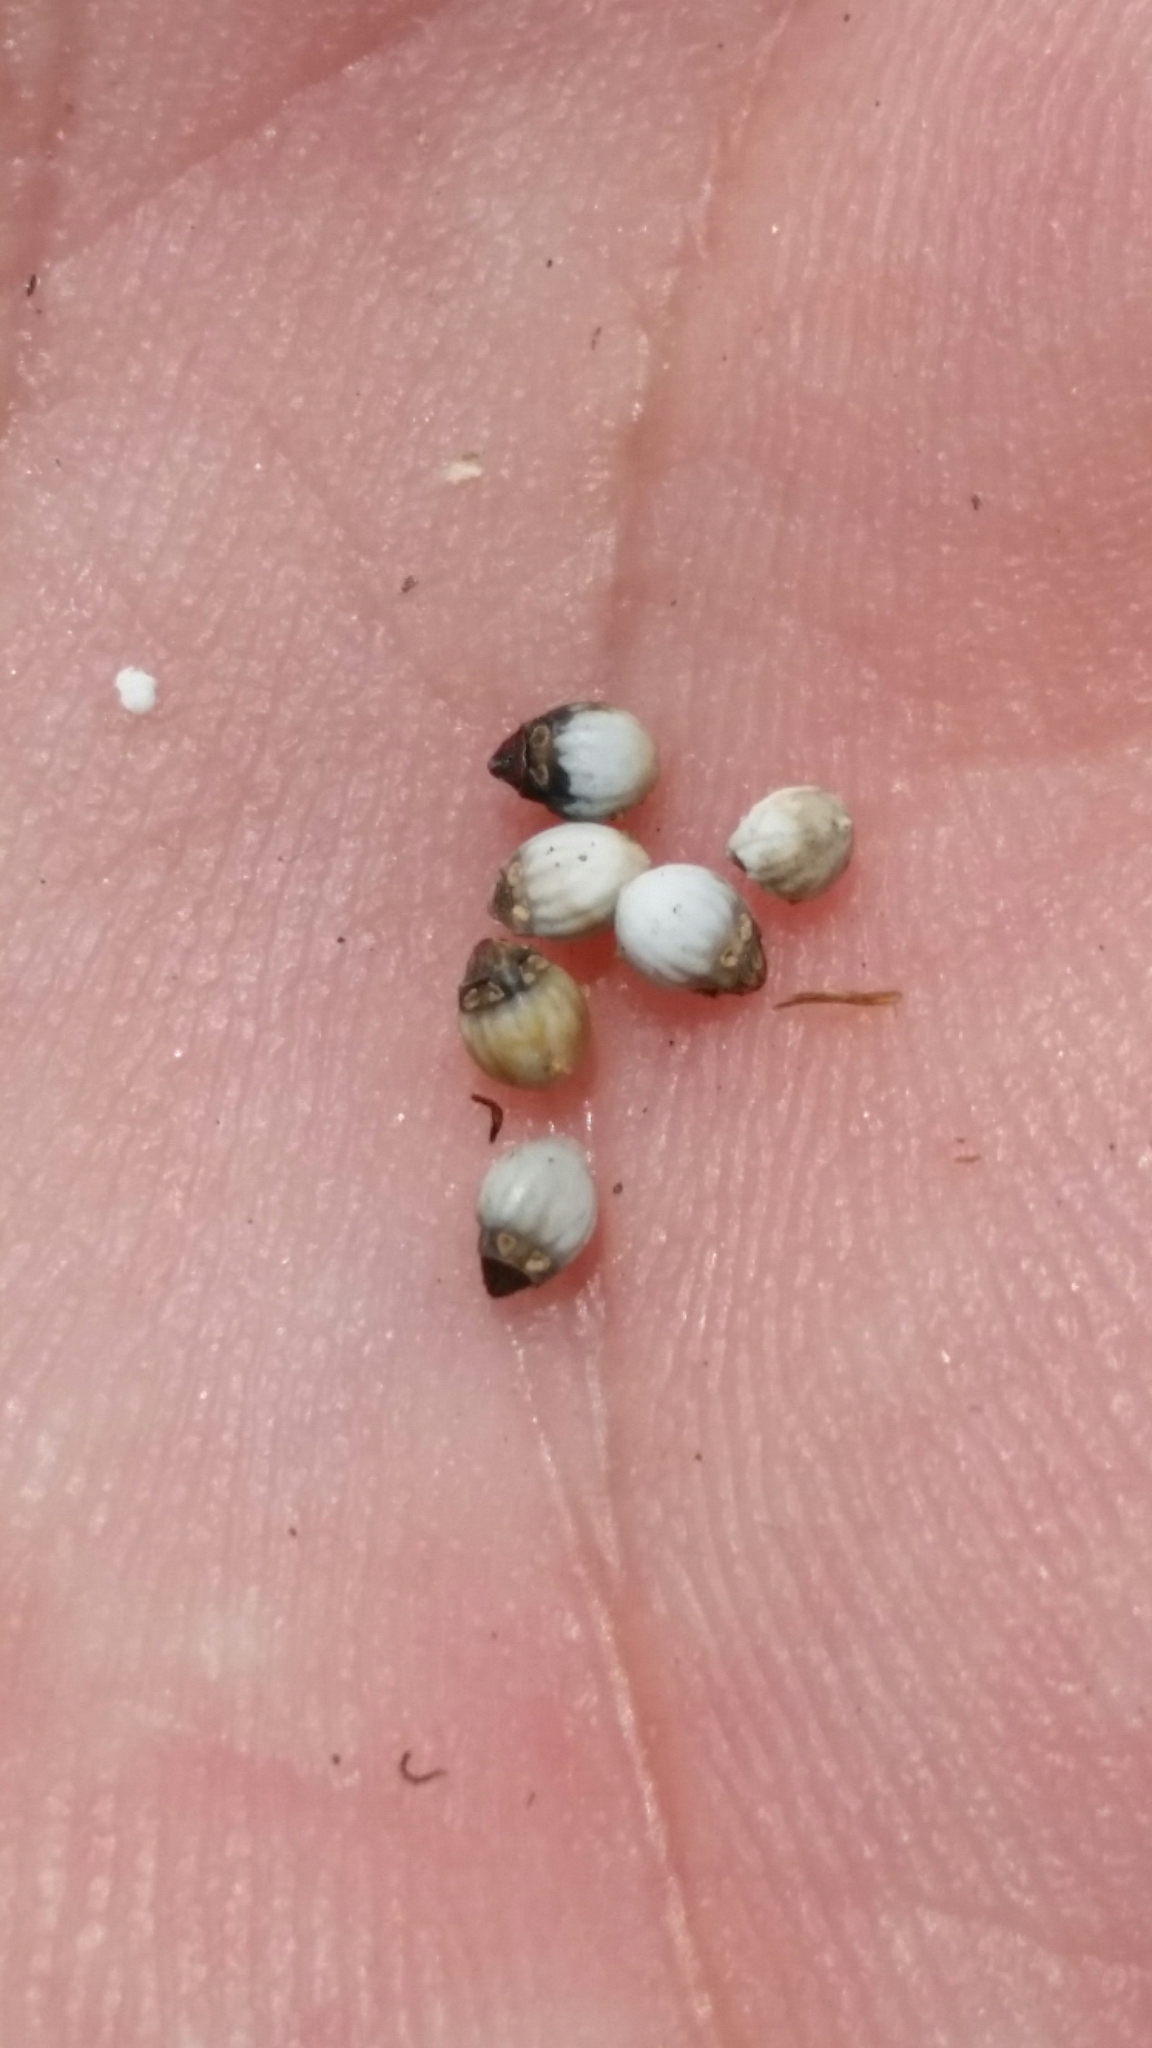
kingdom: Plantae
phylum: Tracheophyta
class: Liliopsida
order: Poales
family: Cyperaceae
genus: Scleria
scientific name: Scleria georgiana
